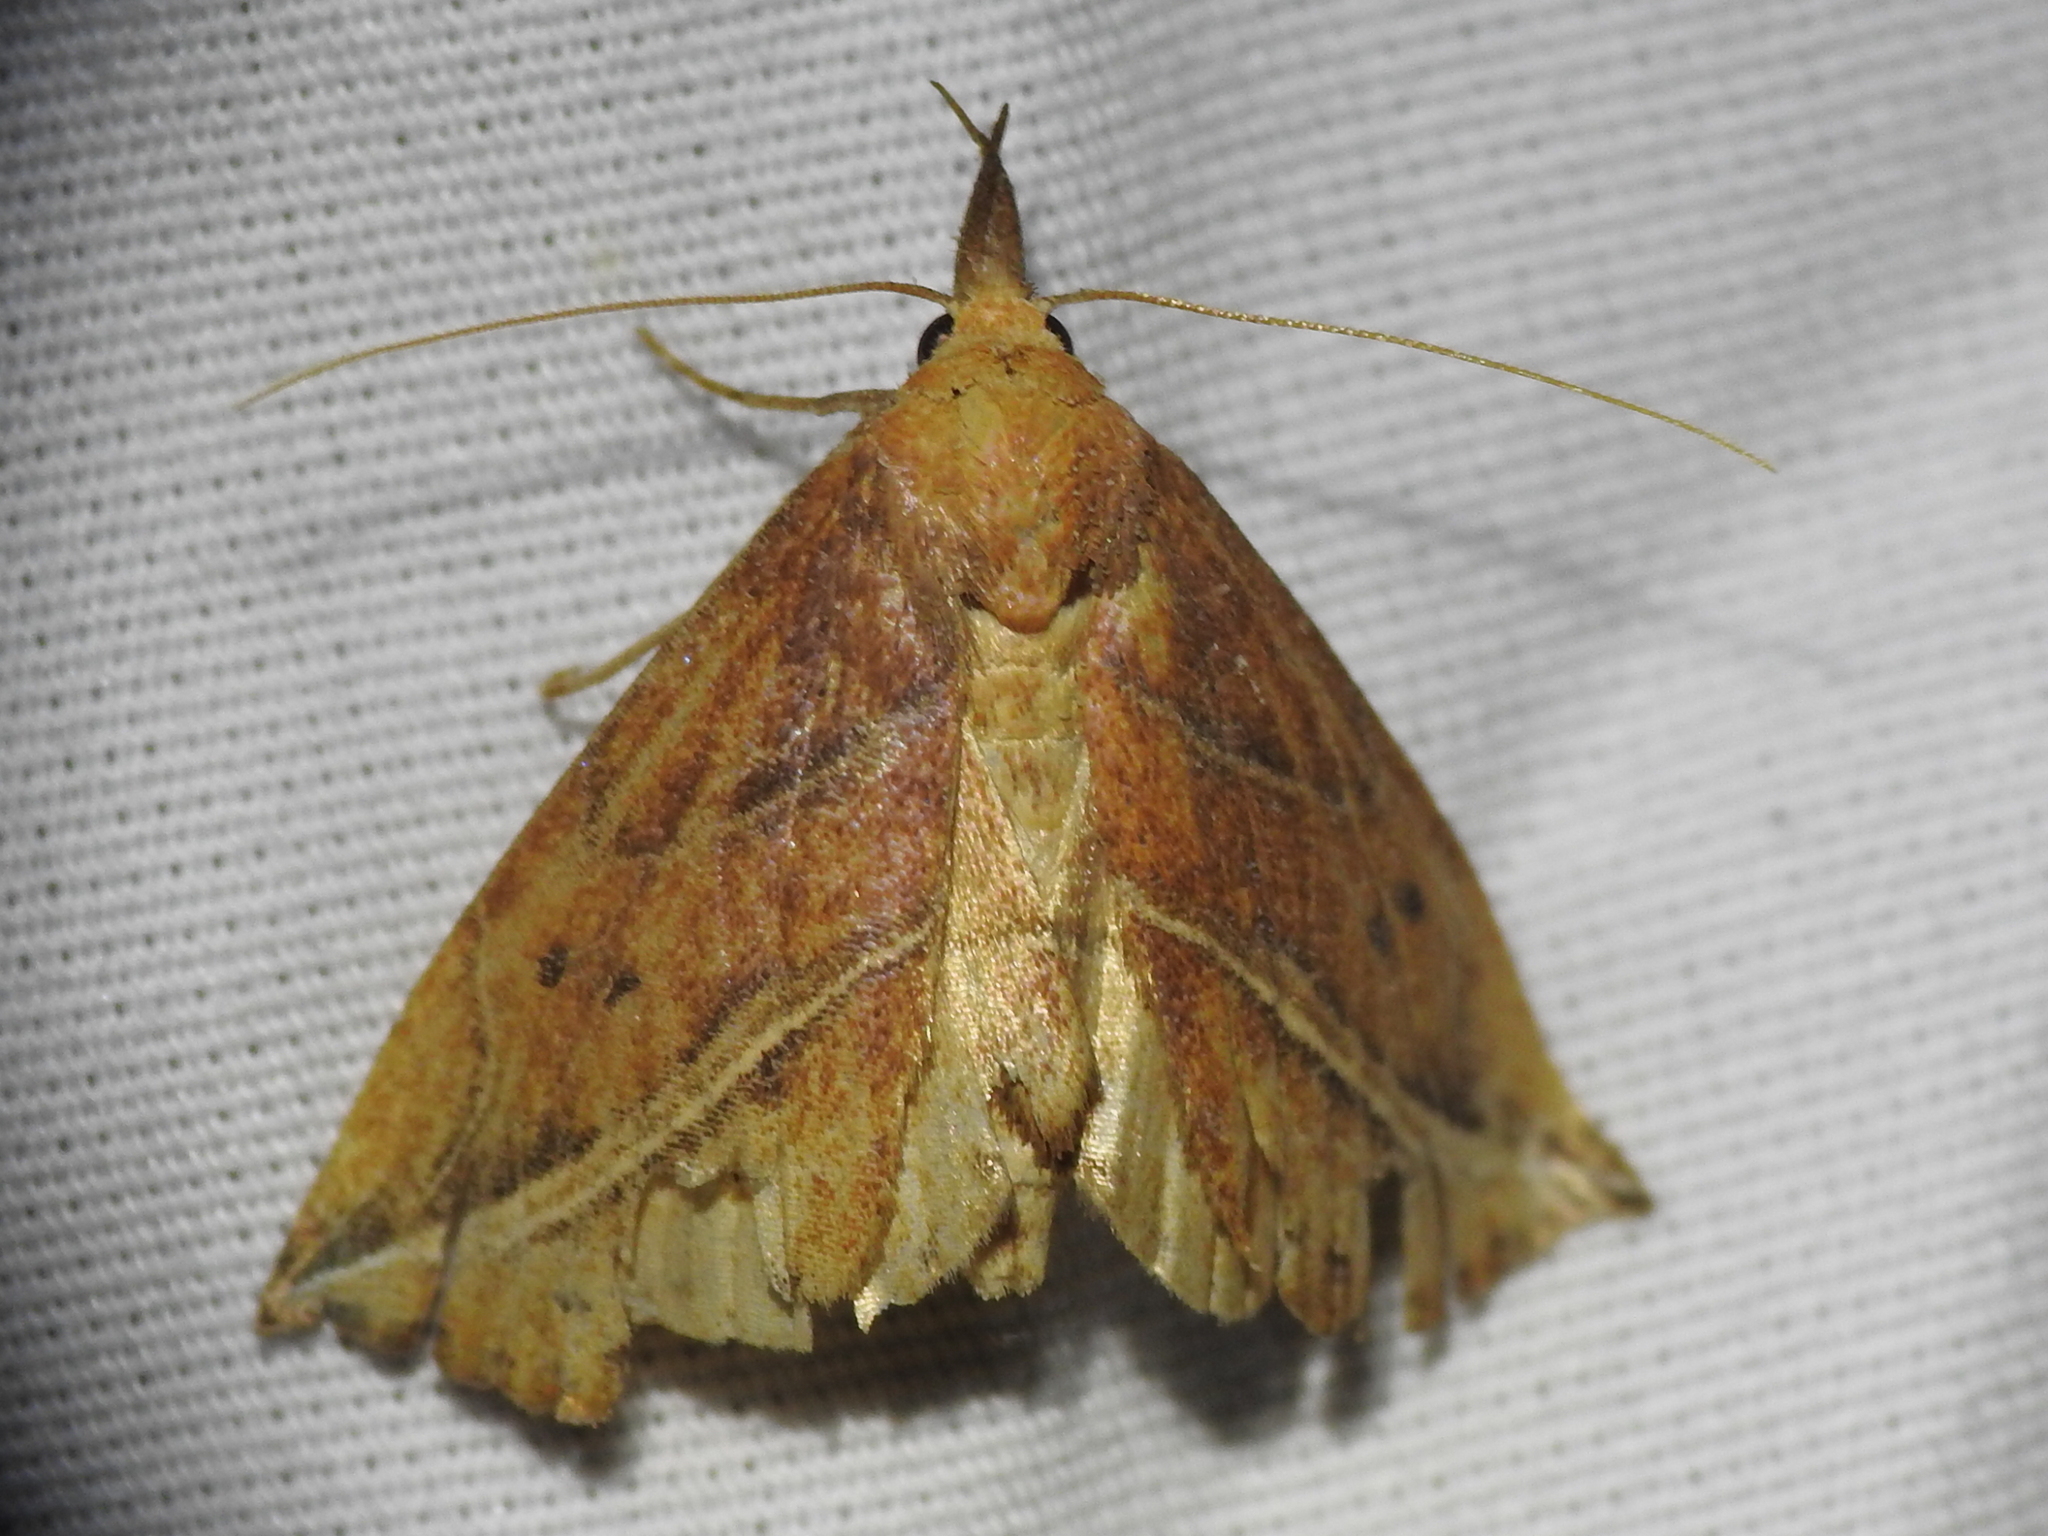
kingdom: Animalia
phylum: Arthropoda
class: Insecta
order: Lepidoptera
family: Erebidae
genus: Phyprosopus
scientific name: Phyprosopus callitrichoides
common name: Curved-lined owlet
